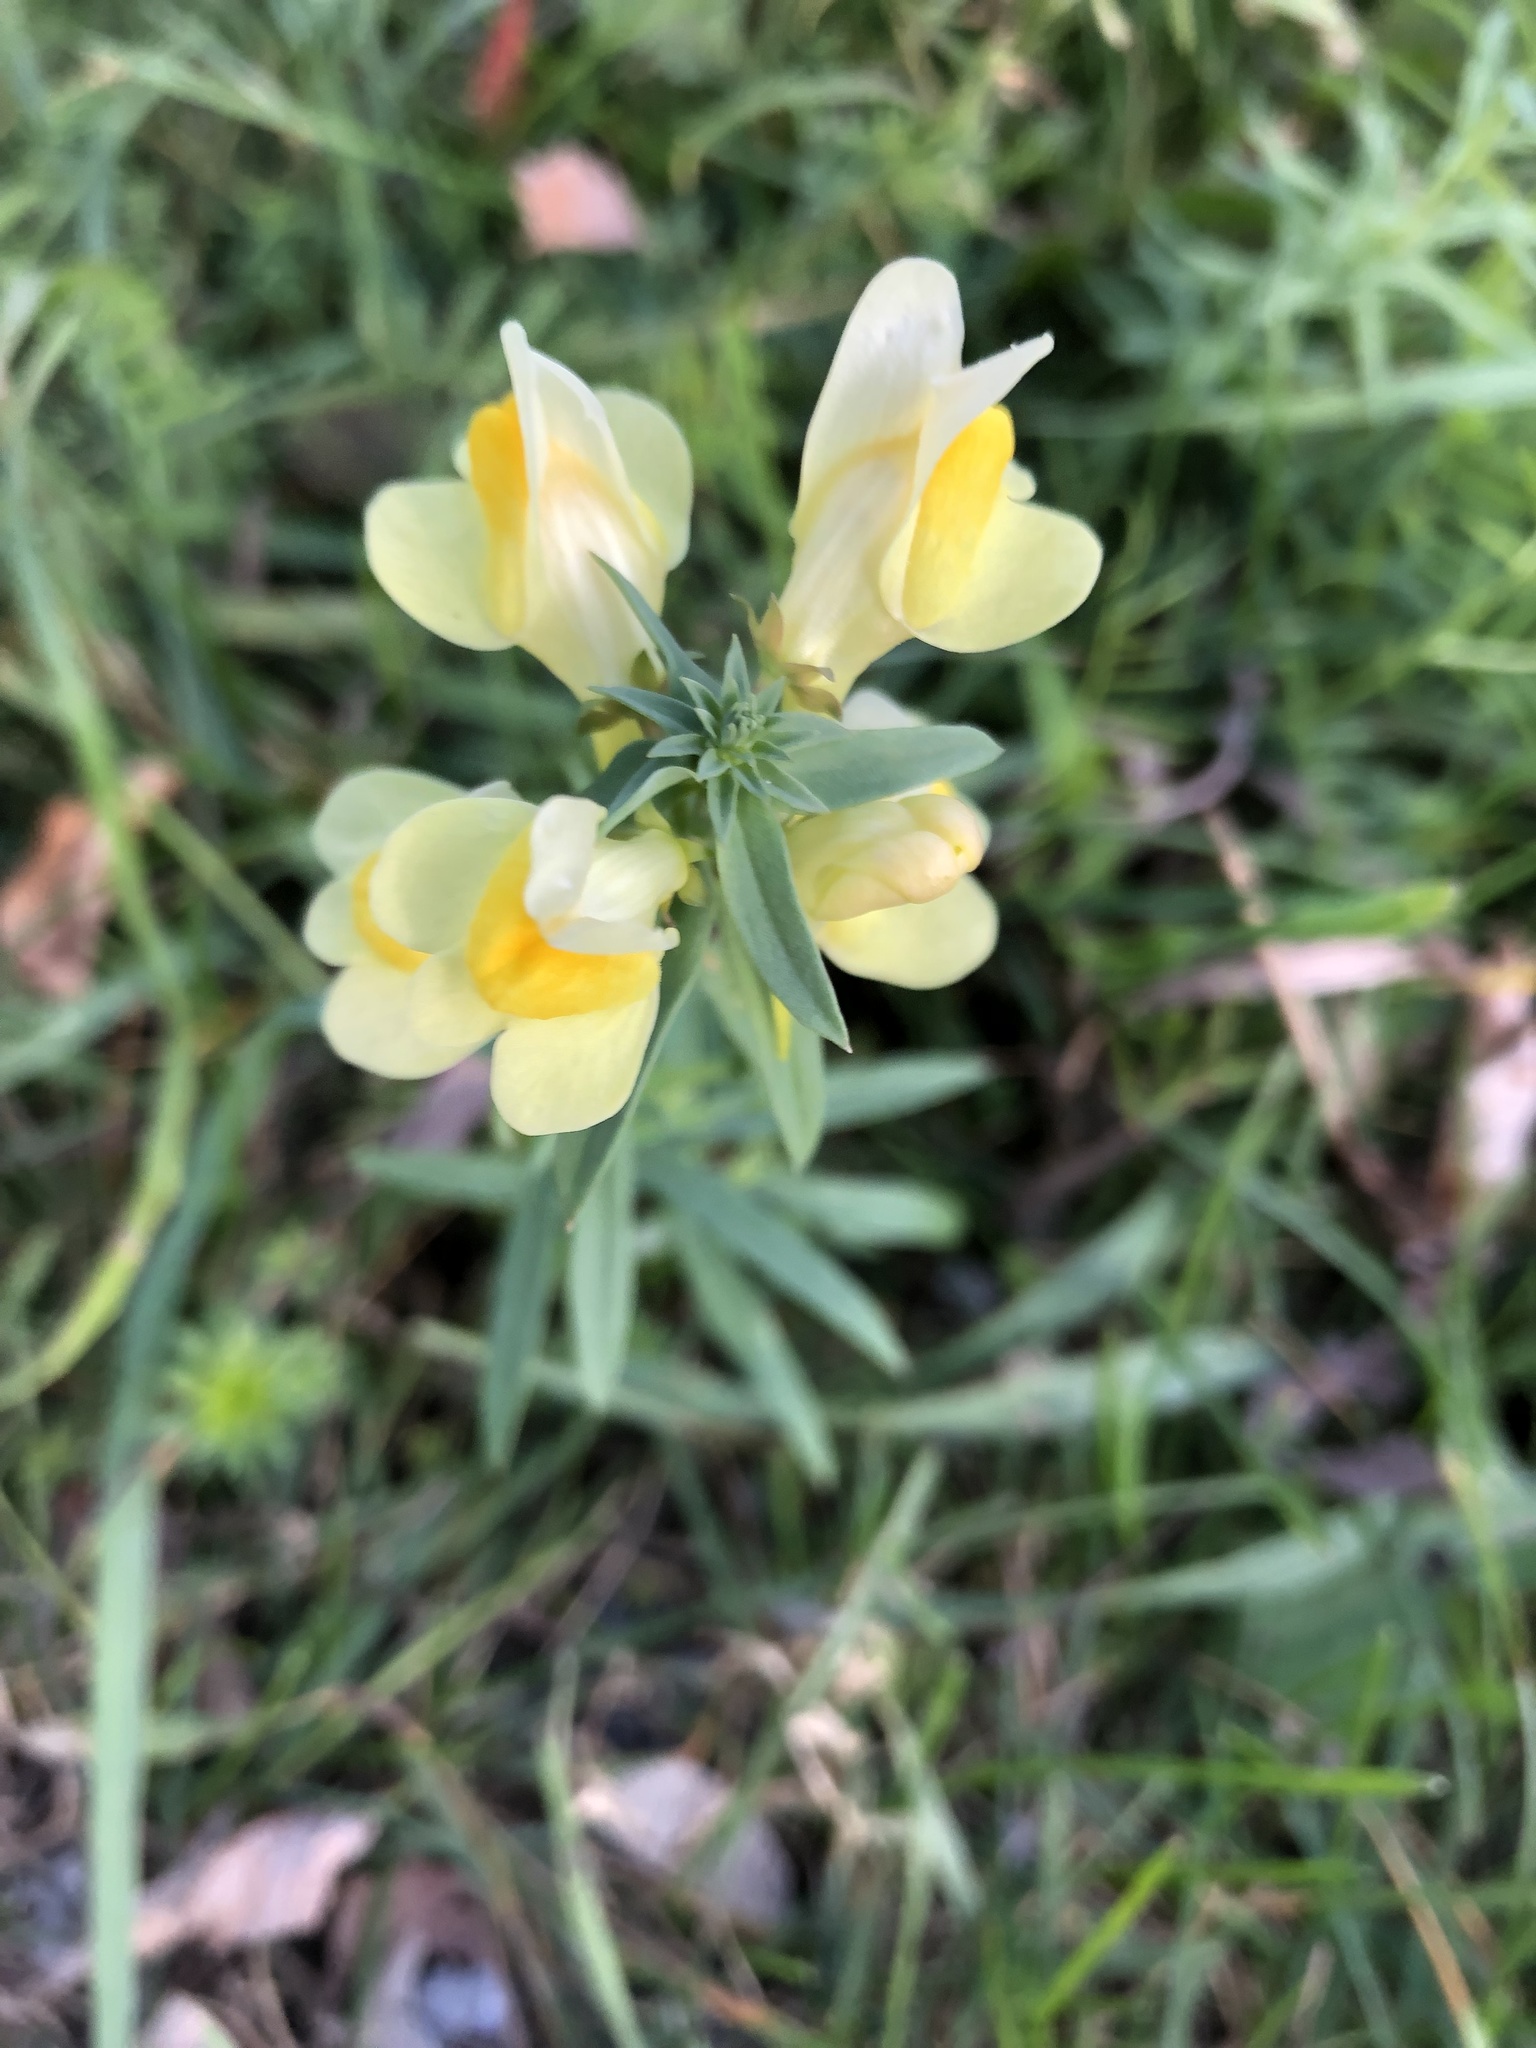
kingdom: Plantae
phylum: Tracheophyta
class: Magnoliopsida
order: Lamiales
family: Plantaginaceae
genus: Linaria
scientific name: Linaria vulgaris
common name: Butter and eggs
